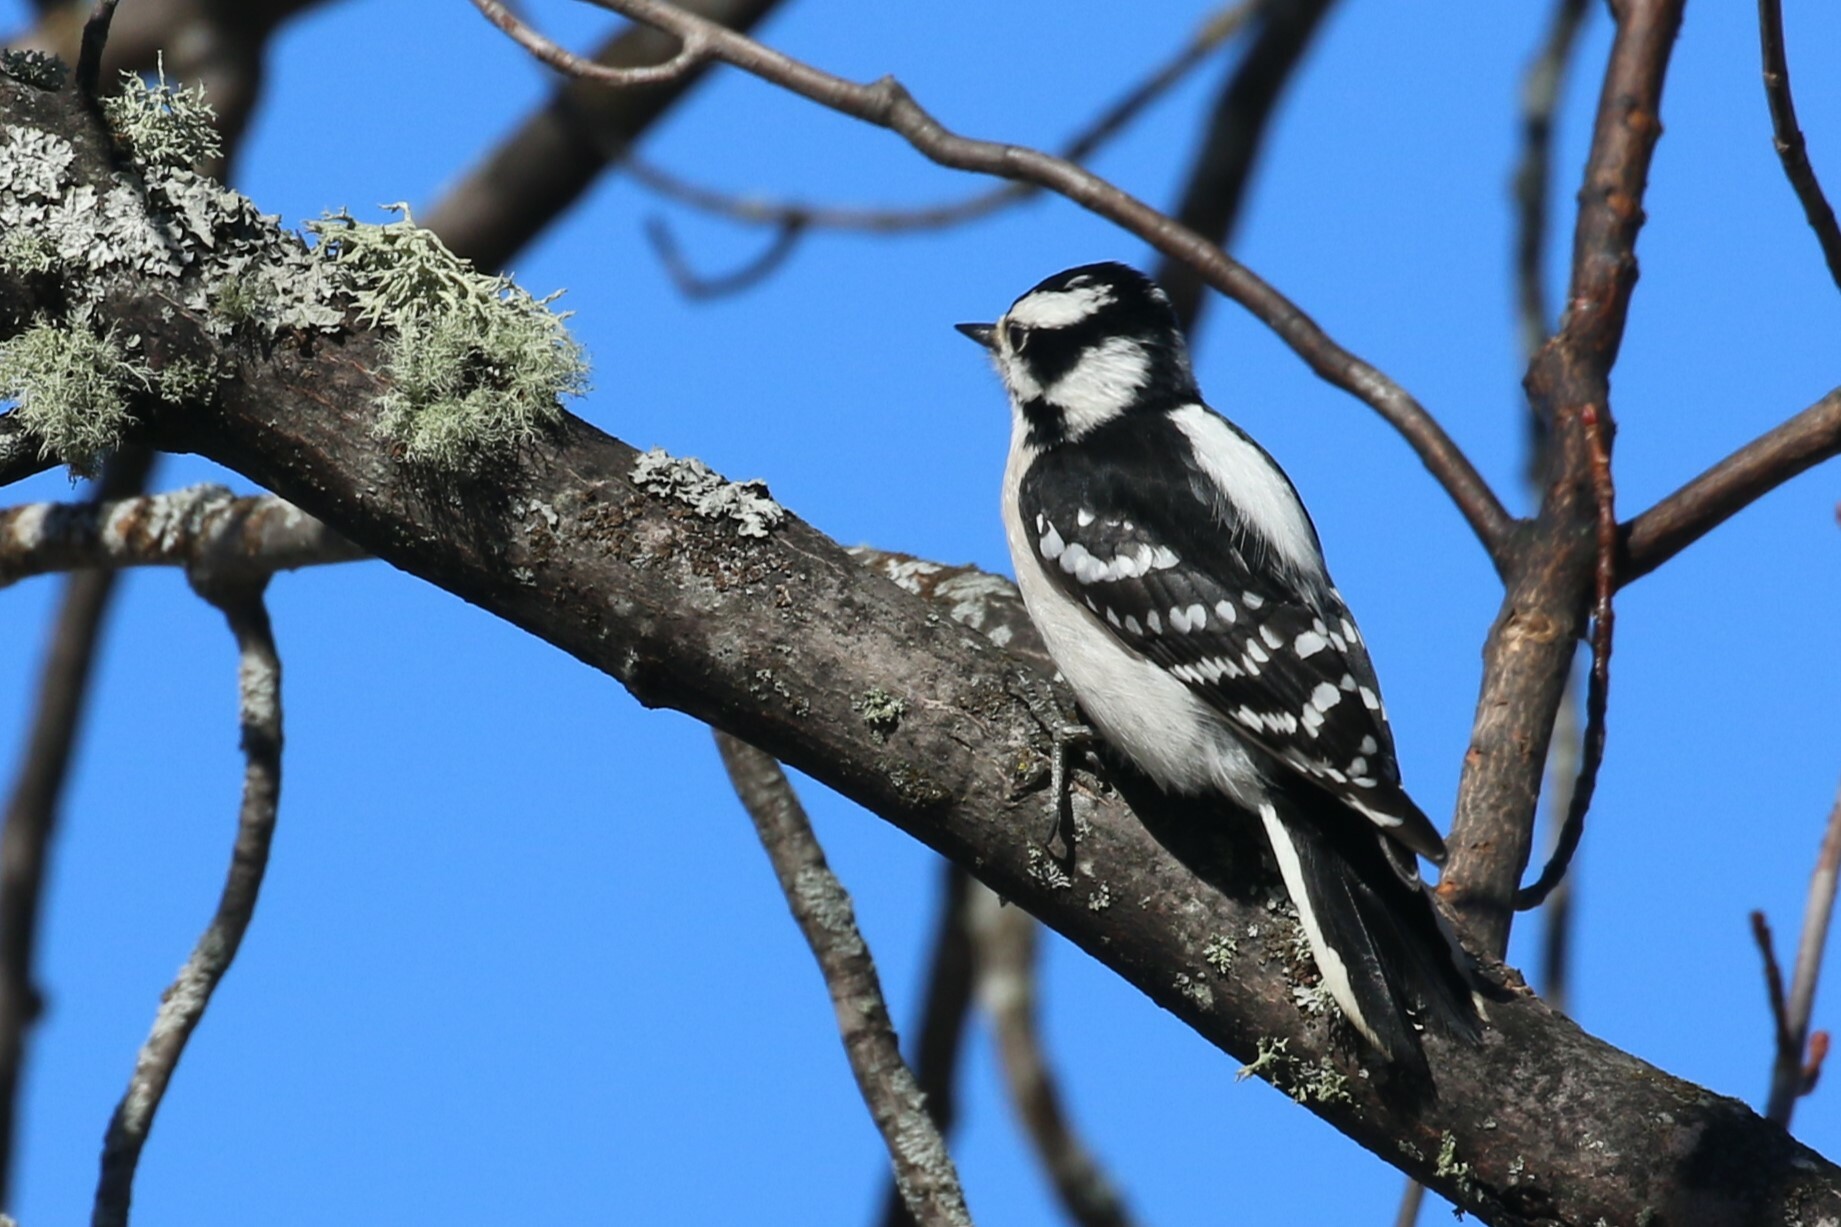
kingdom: Animalia
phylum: Chordata
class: Aves
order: Piciformes
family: Picidae
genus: Dryobates
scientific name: Dryobates pubescens
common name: Downy woodpecker
